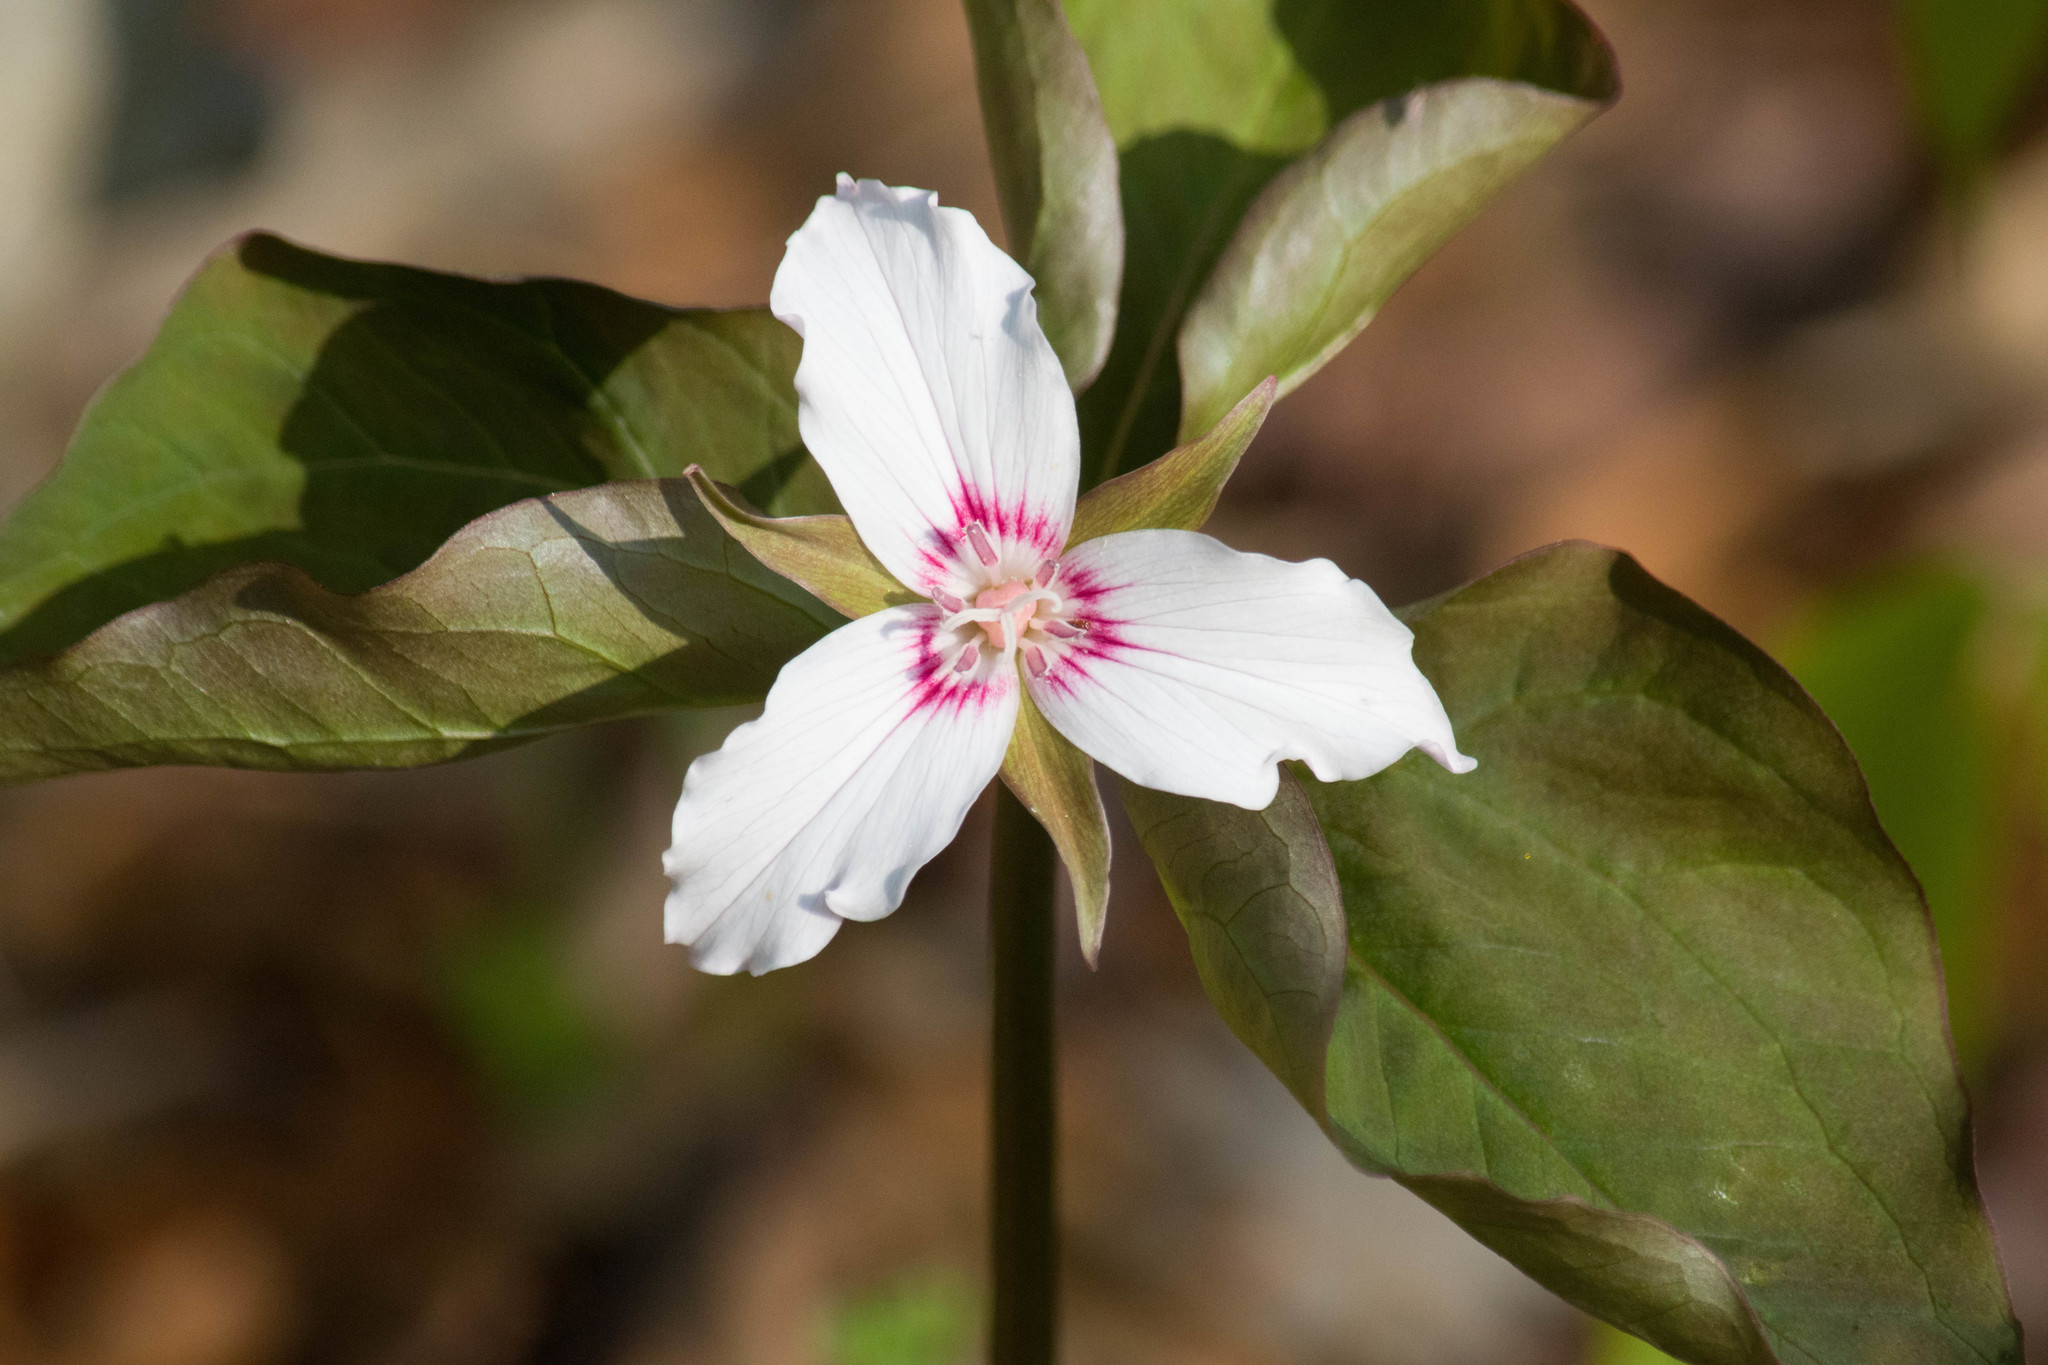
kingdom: Plantae
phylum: Tracheophyta
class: Liliopsida
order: Liliales
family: Melanthiaceae
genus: Trillium
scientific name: Trillium undulatum
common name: Paint trillium
